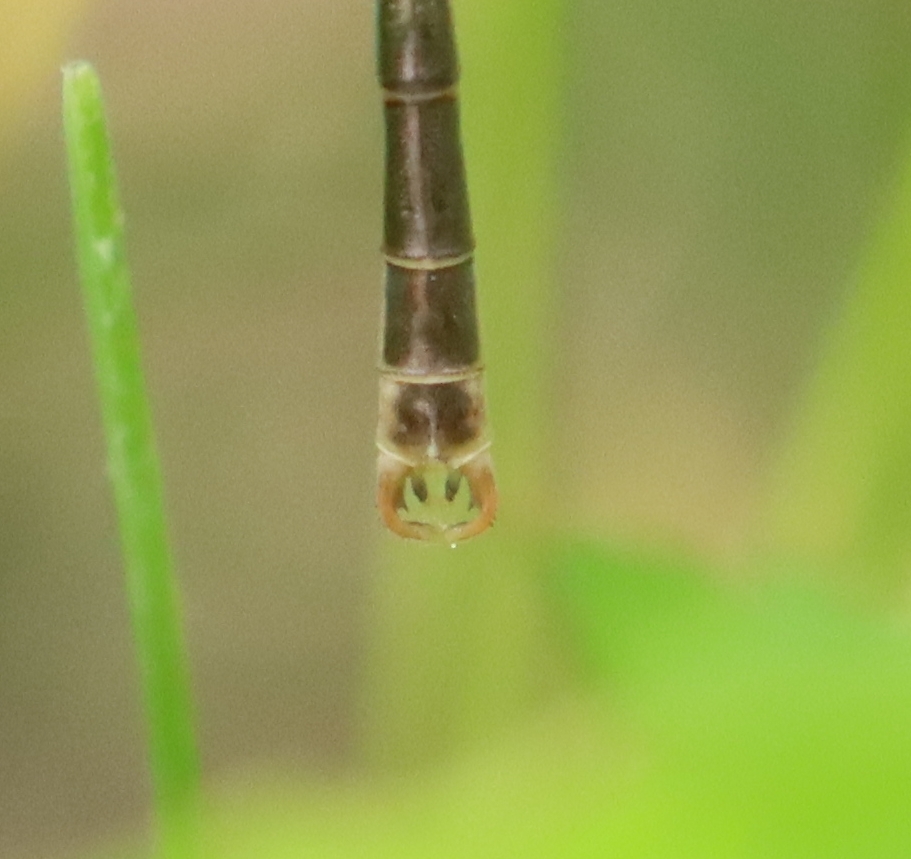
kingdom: Animalia
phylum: Arthropoda
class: Insecta
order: Odonata
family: Lestidae
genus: Lestes
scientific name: Lestes rectangularis
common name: Slender spreadwing
